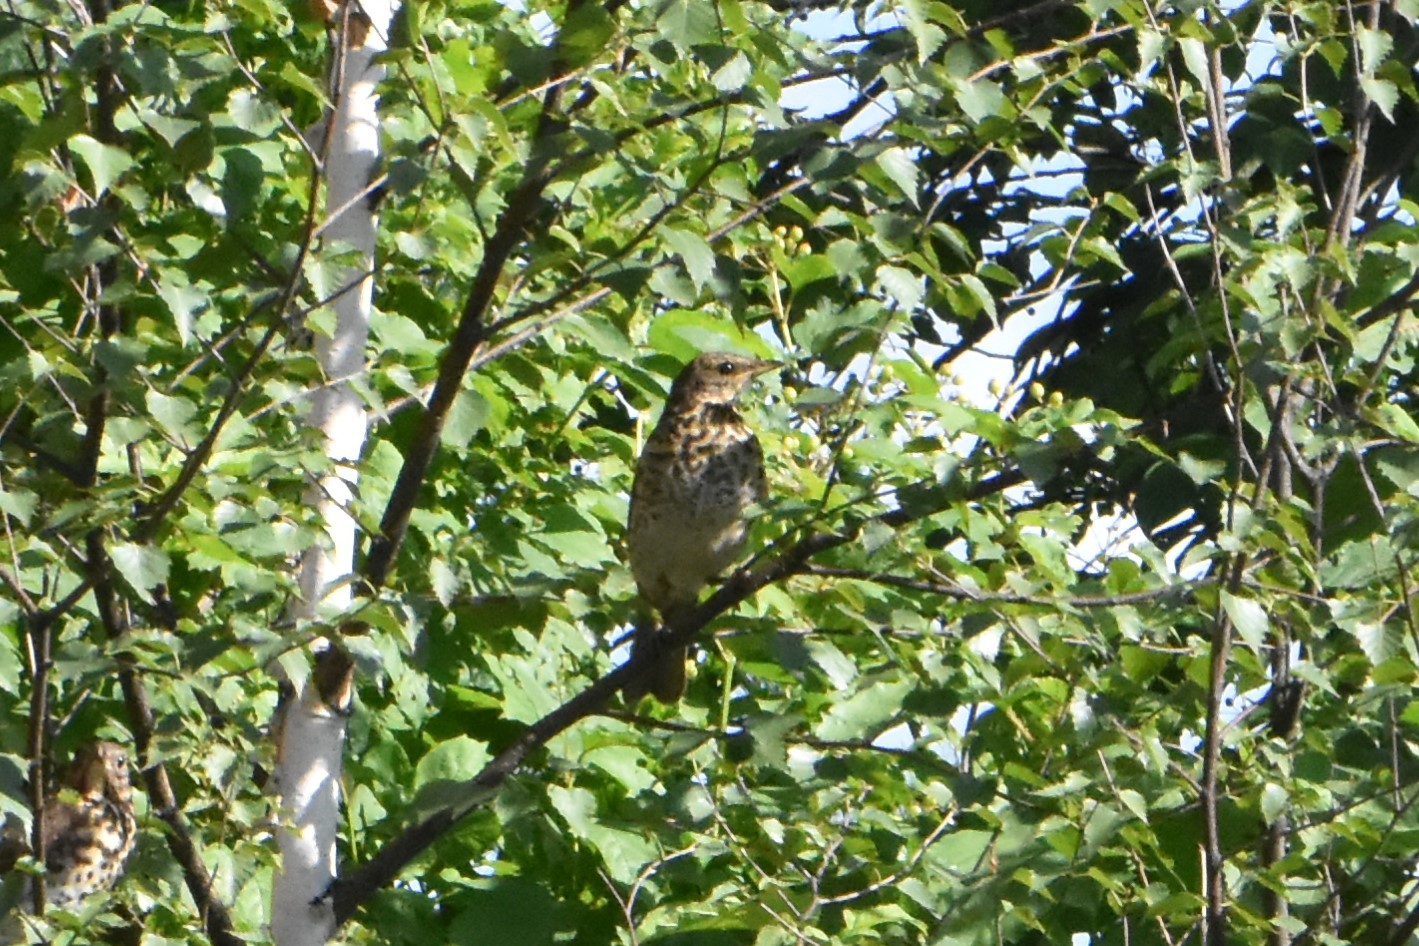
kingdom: Animalia
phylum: Chordata
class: Aves
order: Passeriformes
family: Turdidae
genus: Turdus
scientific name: Turdus pilaris
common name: Fieldfare
